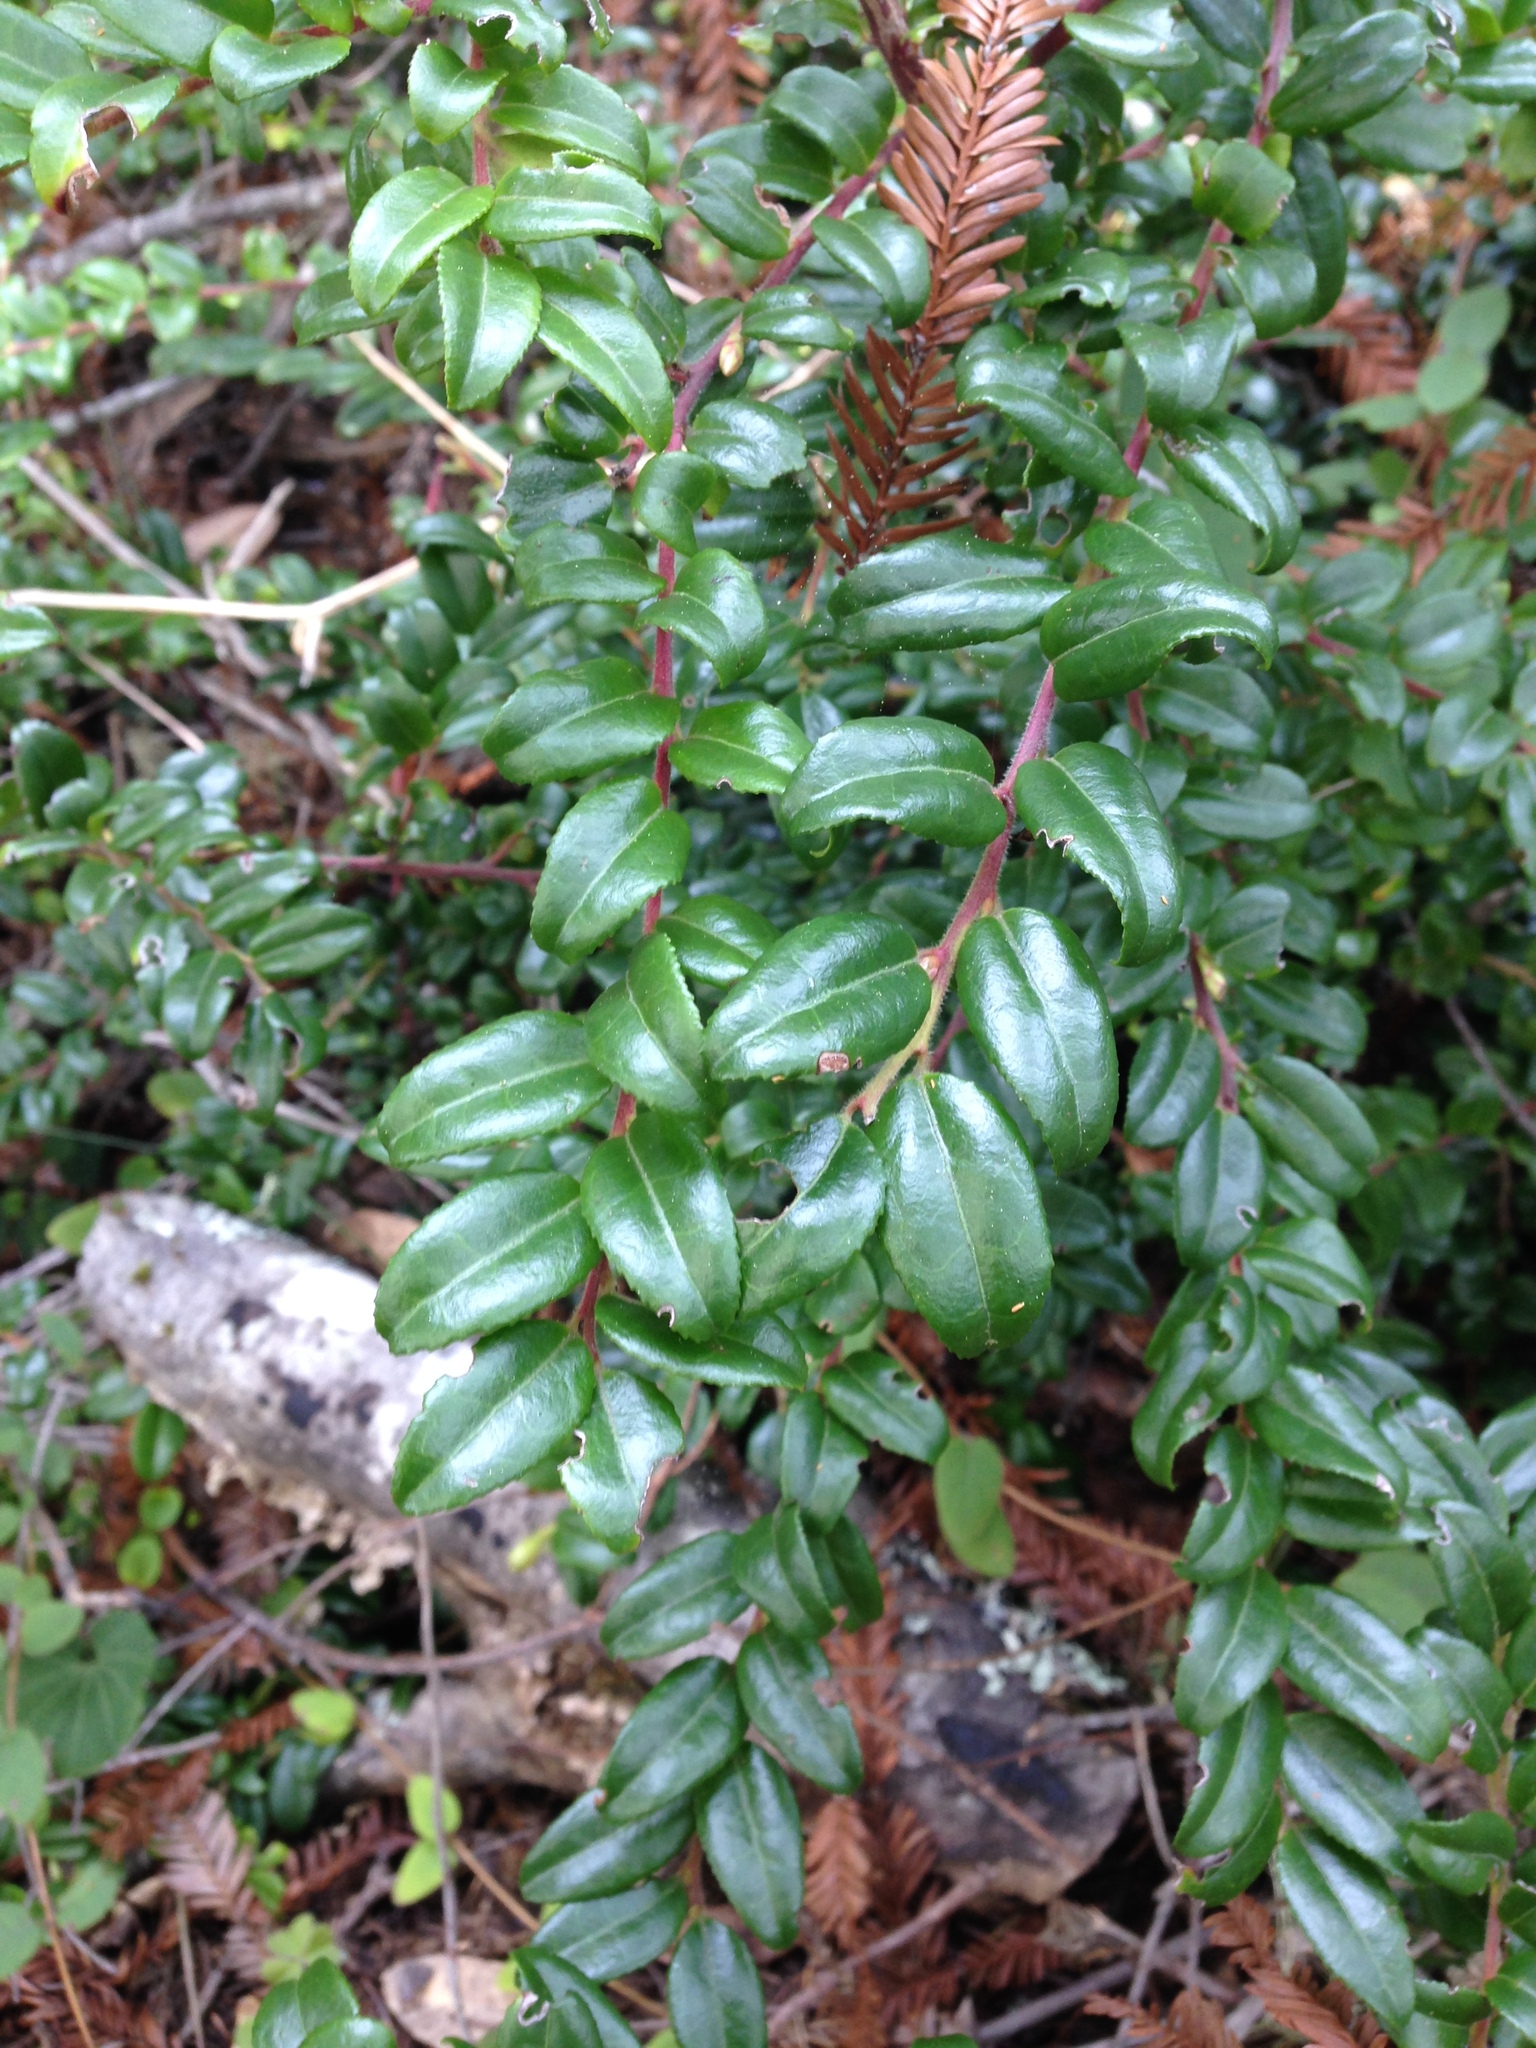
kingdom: Plantae
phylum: Tracheophyta
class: Magnoliopsida
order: Ericales
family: Ericaceae
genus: Vaccinium
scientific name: Vaccinium ovatum
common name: California-huckleberry
